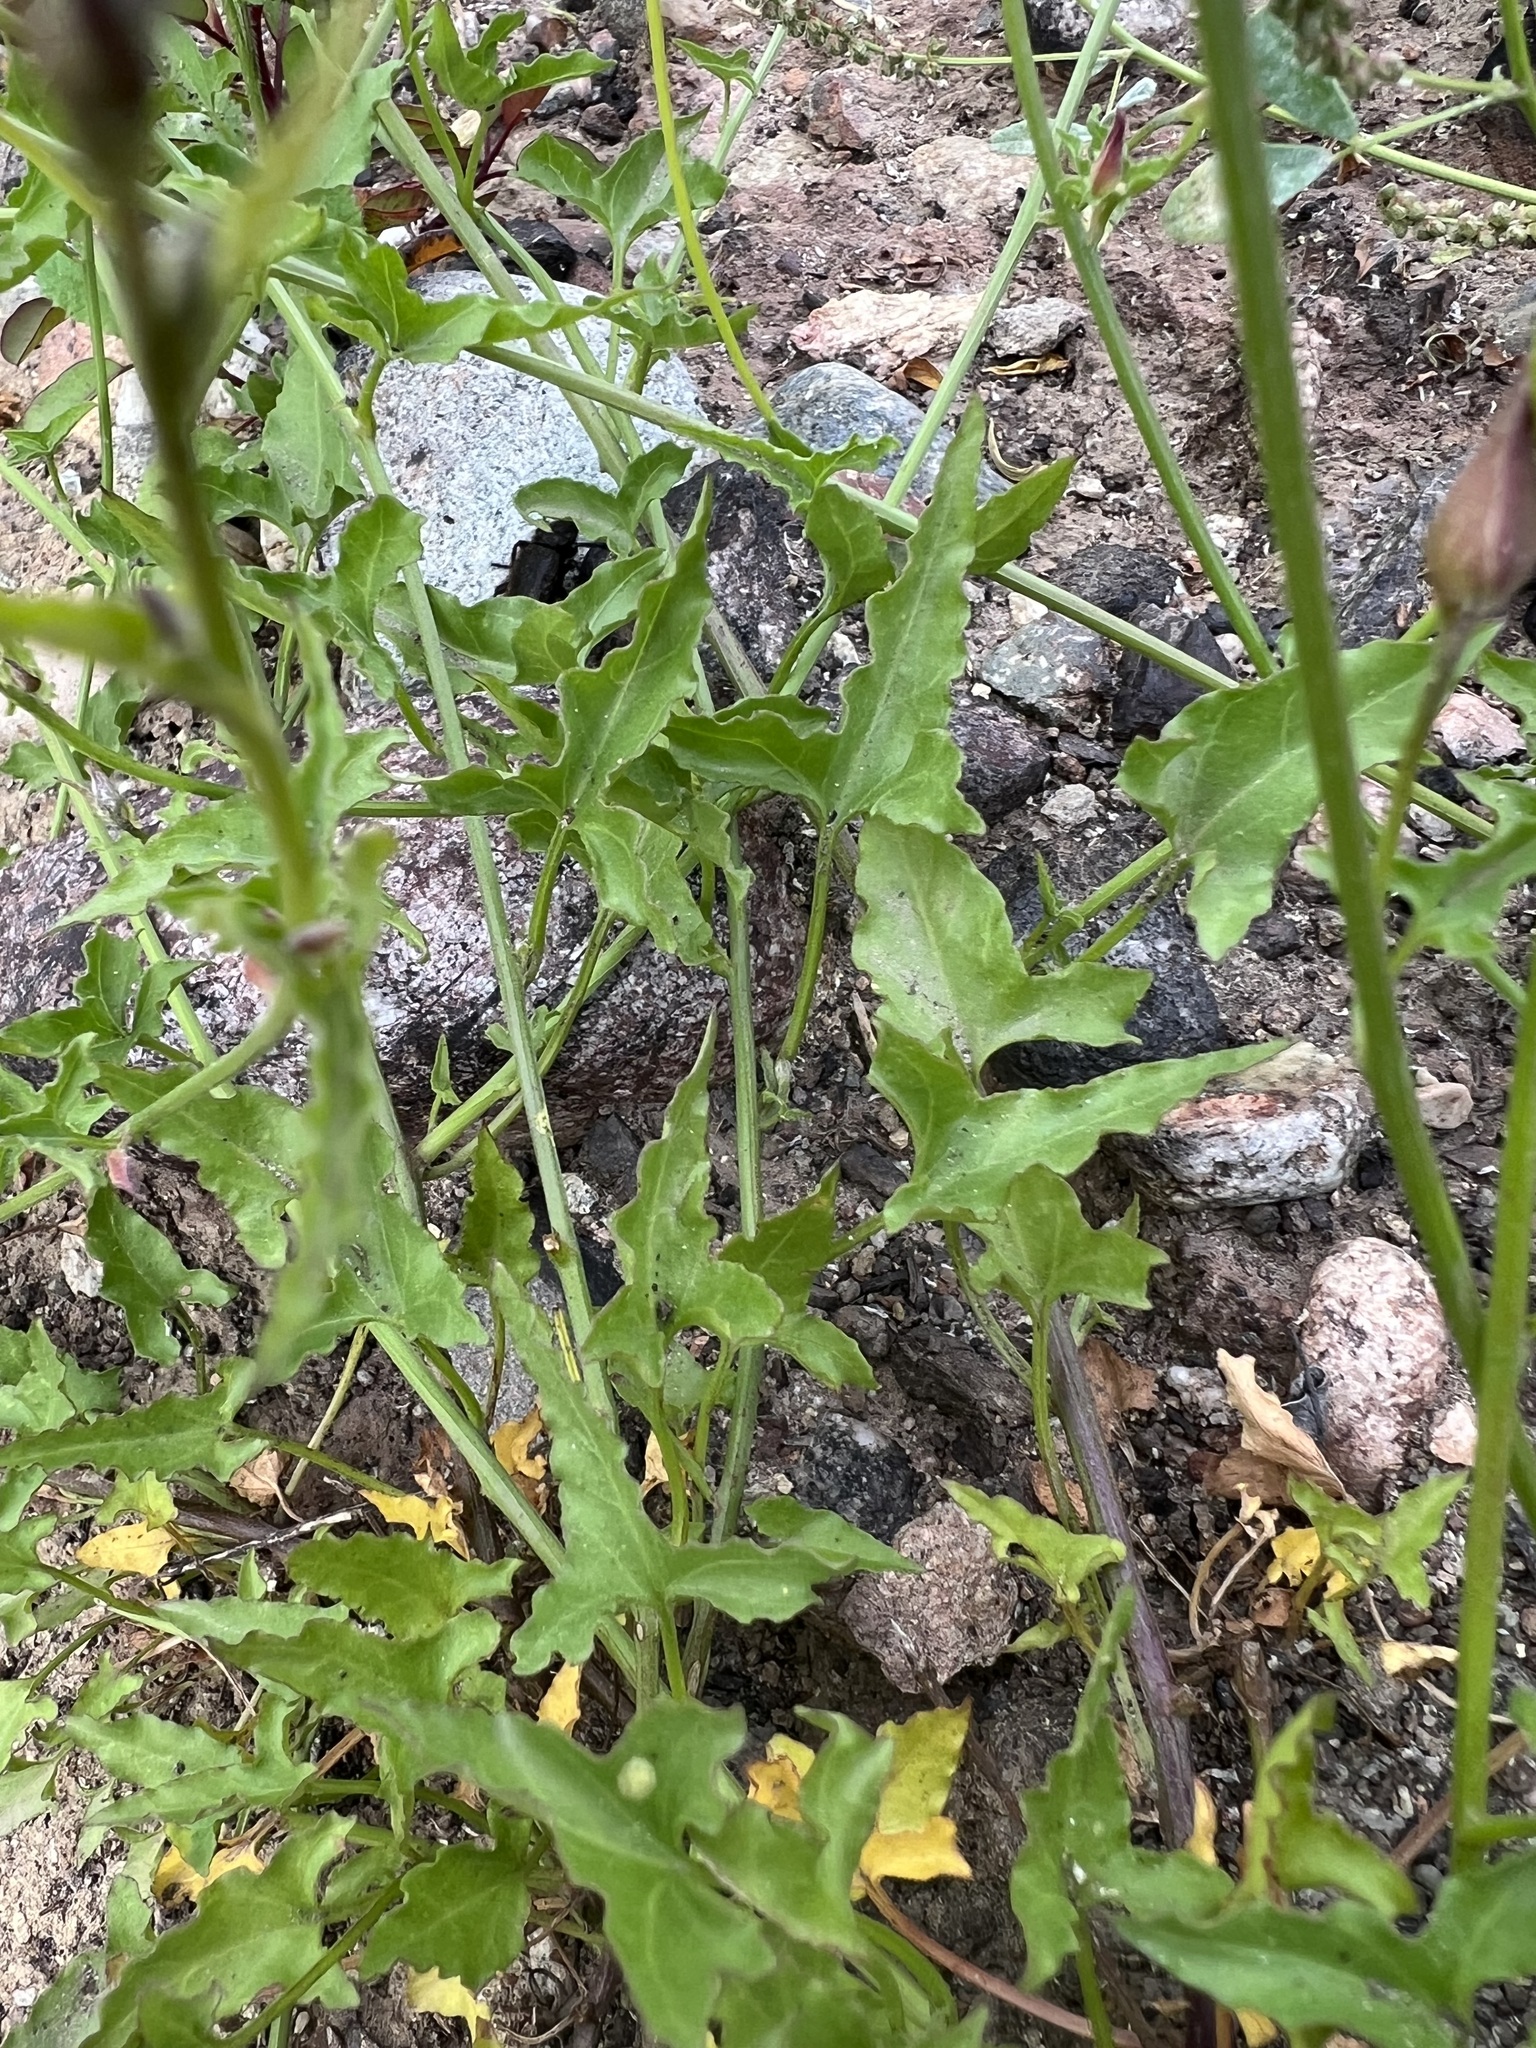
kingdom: Plantae
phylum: Tracheophyta
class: Magnoliopsida
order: Solanales
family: Convolvulaceae
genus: Calystegia
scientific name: Calystegia macrostegia
